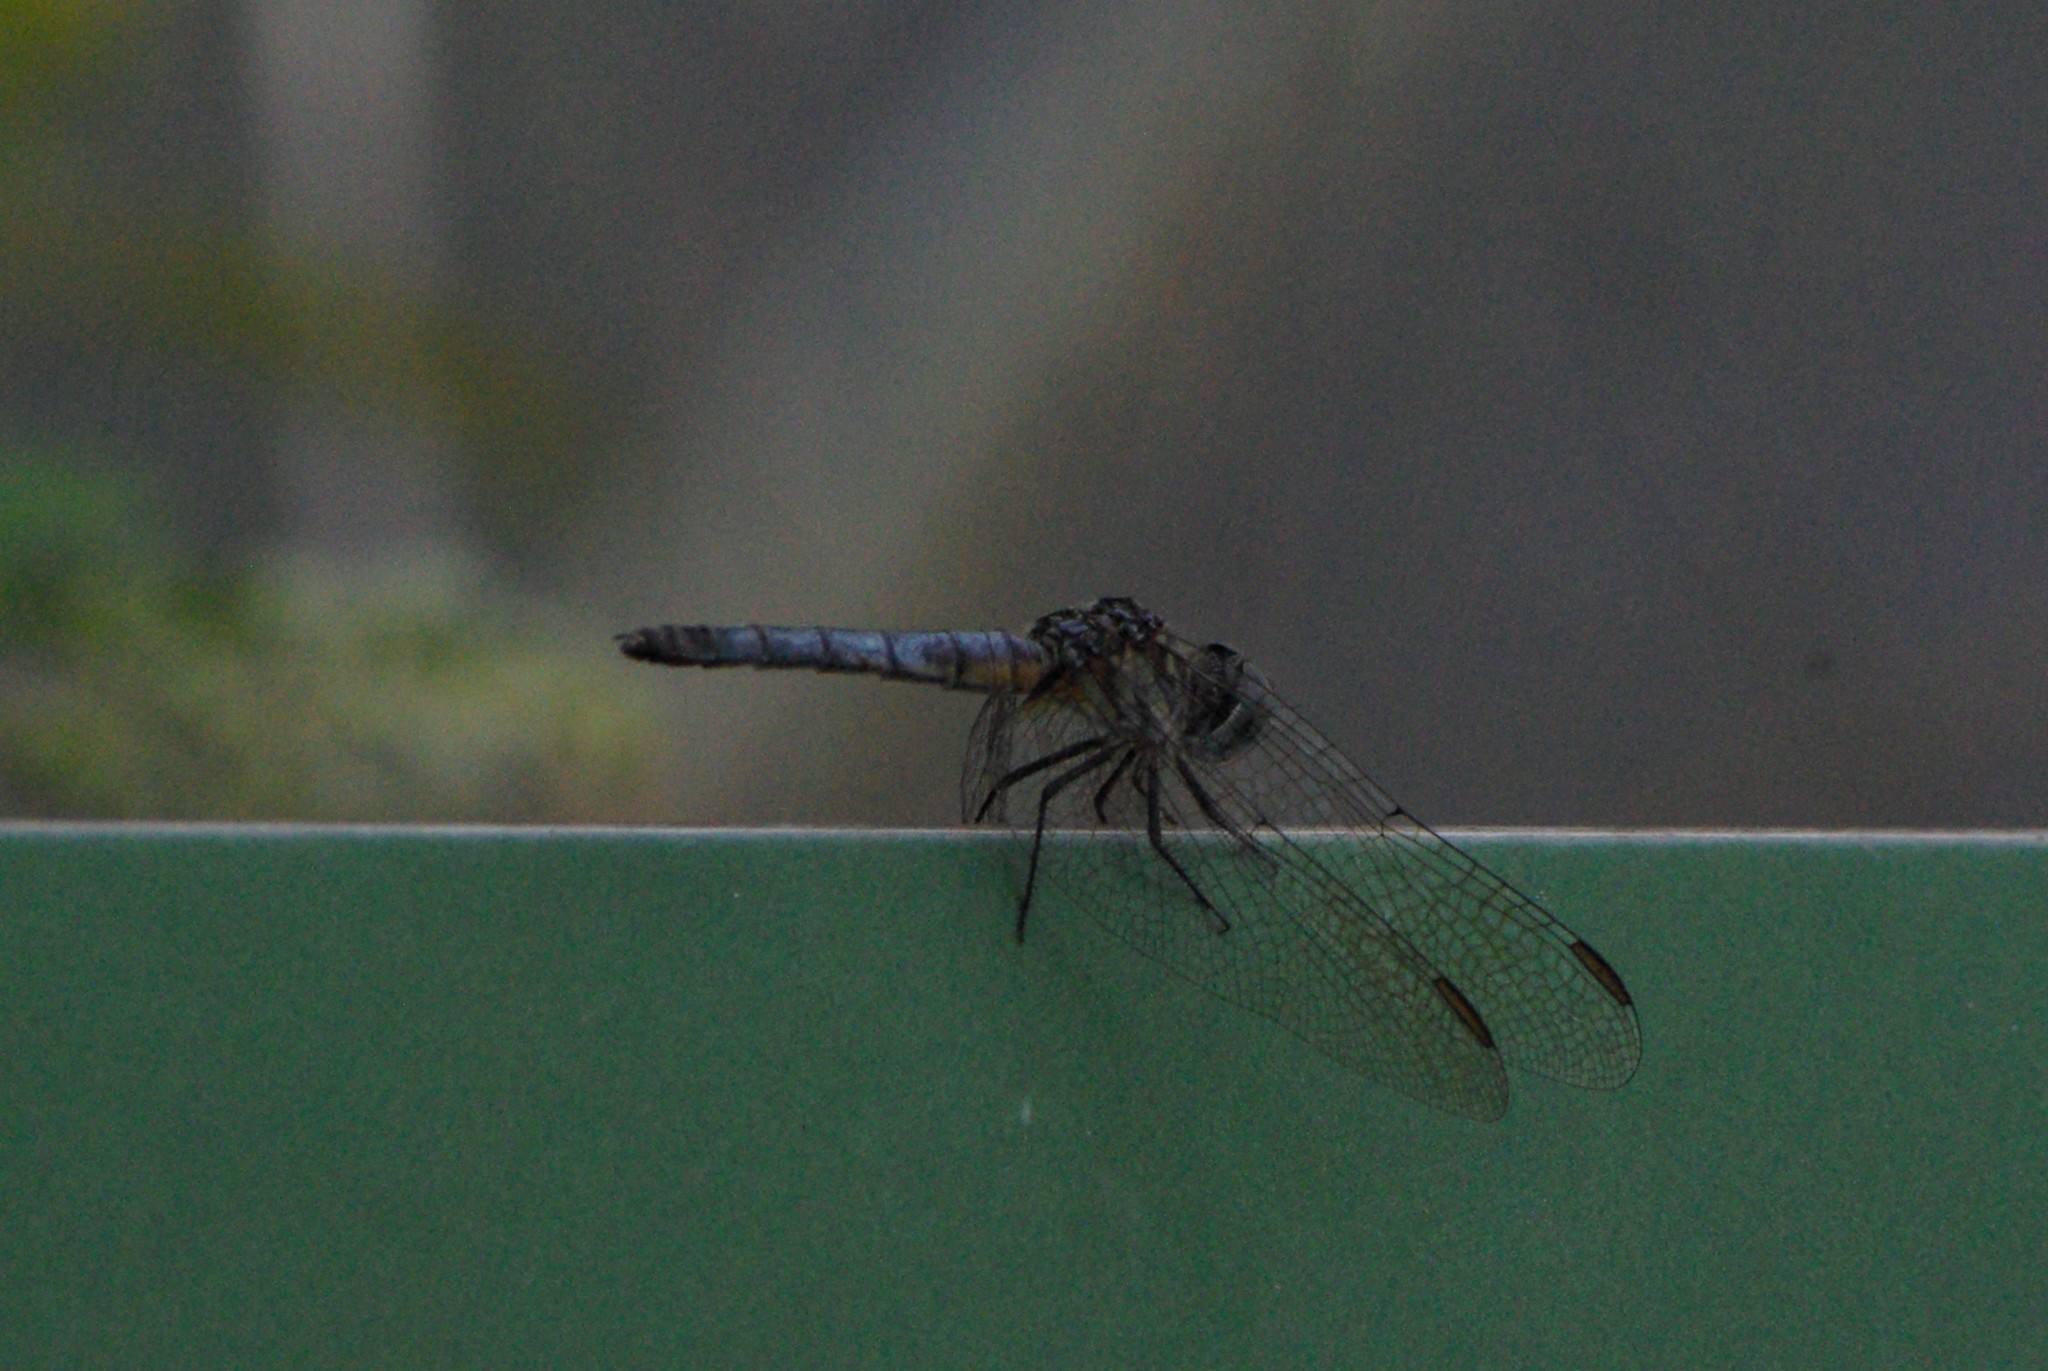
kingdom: Animalia
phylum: Arthropoda
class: Insecta
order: Odonata
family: Libellulidae
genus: Pachydiplax
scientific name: Pachydiplax longipennis
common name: Blue dasher
